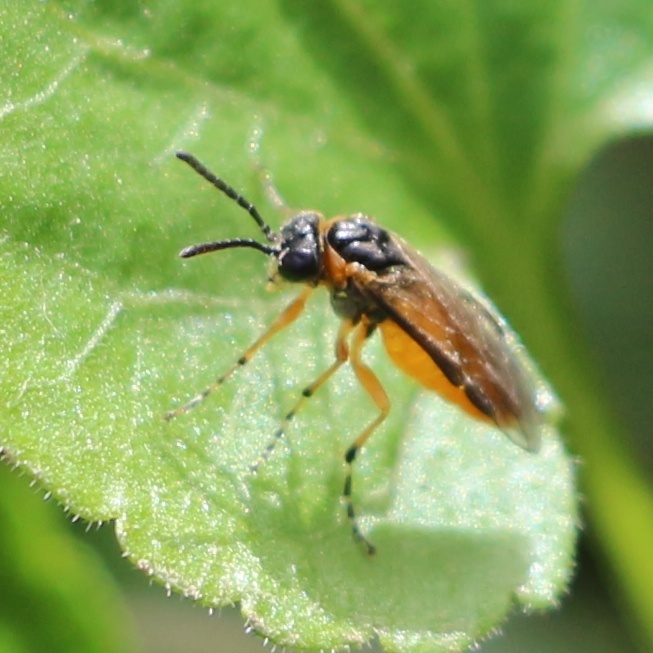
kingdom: Animalia
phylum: Arthropoda
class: Insecta
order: Hymenoptera
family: Tenthredinidae
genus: Athalia
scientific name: Athalia cordata
